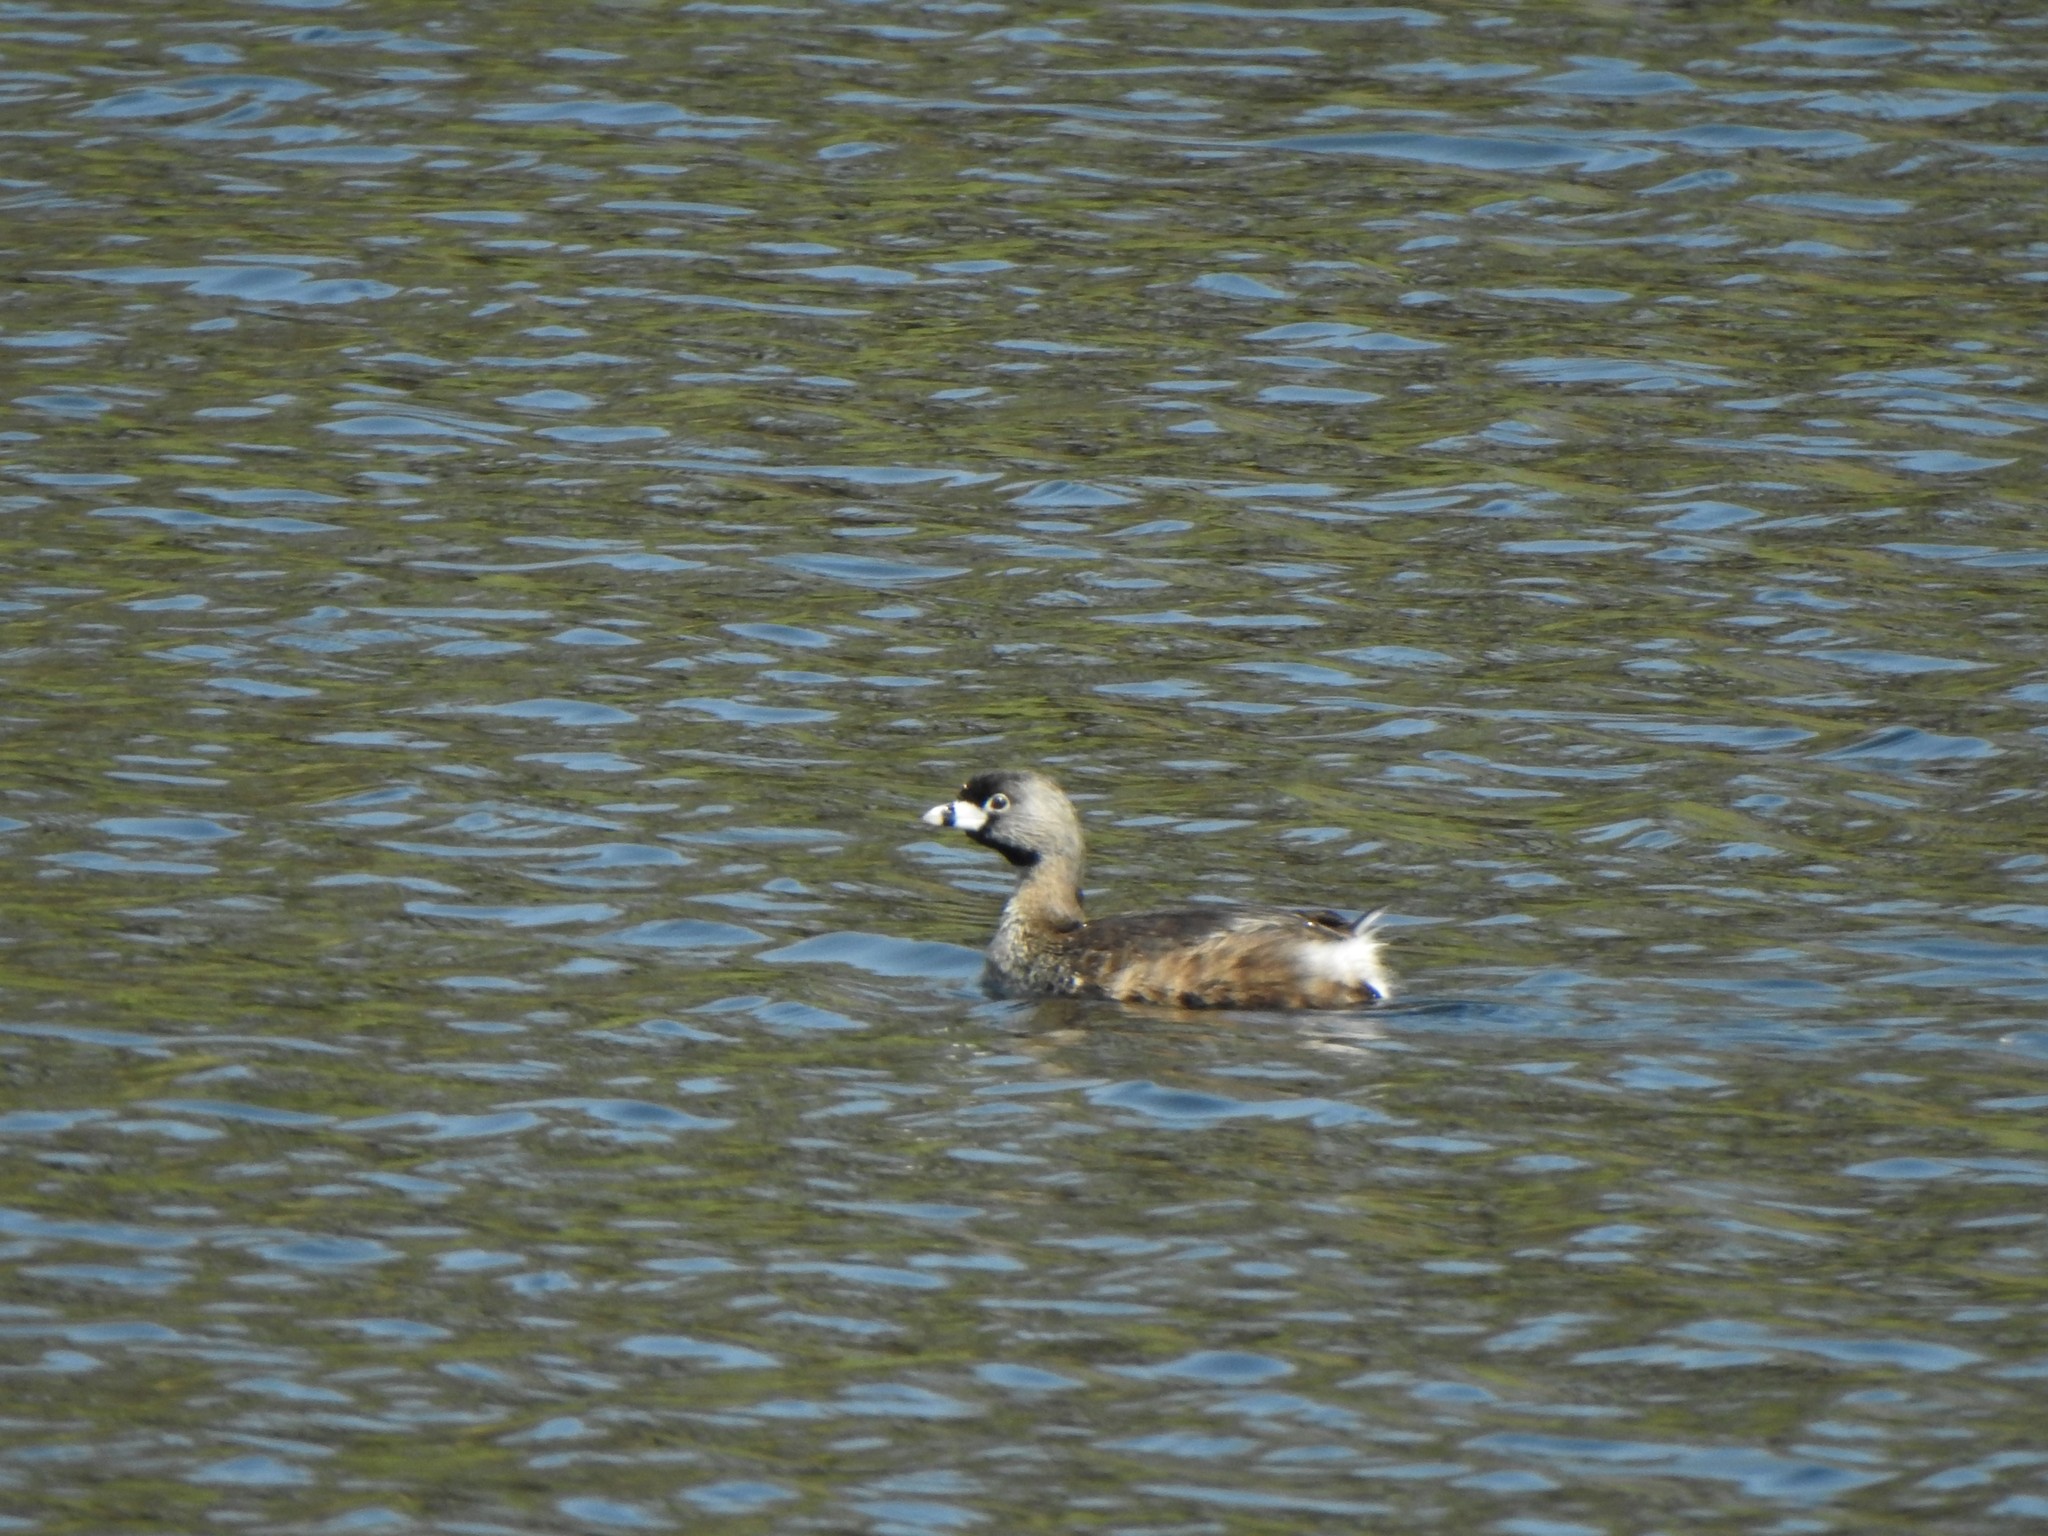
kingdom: Animalia
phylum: Chordata
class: Aves
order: Podicipediformes
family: Podicipedidae
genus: Podilymbus
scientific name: Podilymbus podiceps
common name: Pied-billed grebe
